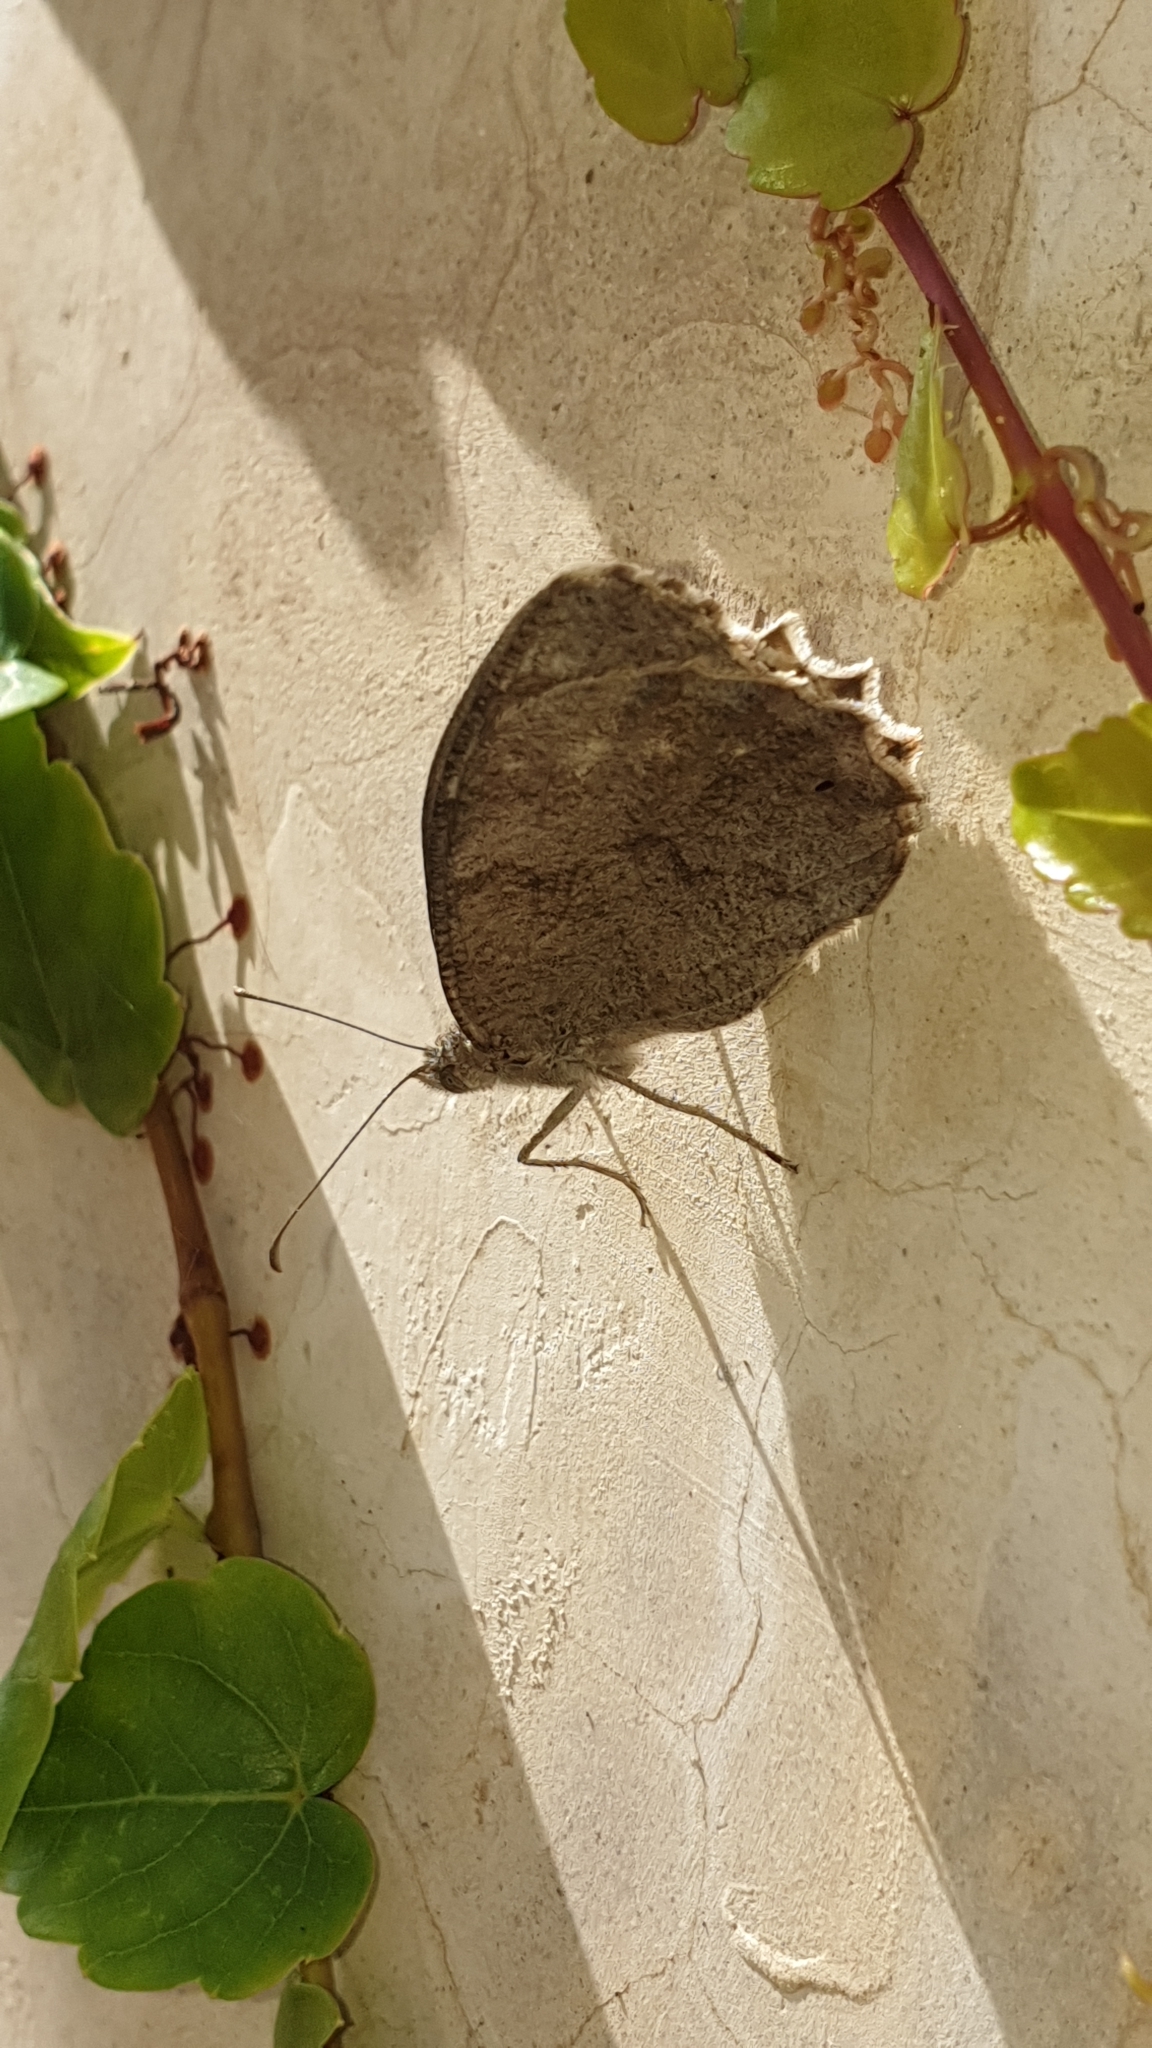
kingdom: Animalia
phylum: Arthropoda
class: Insecta
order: Lepidoptera
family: Nymphalidae
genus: Hipparchia
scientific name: Hipparchia statilinus
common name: Tree grayling
